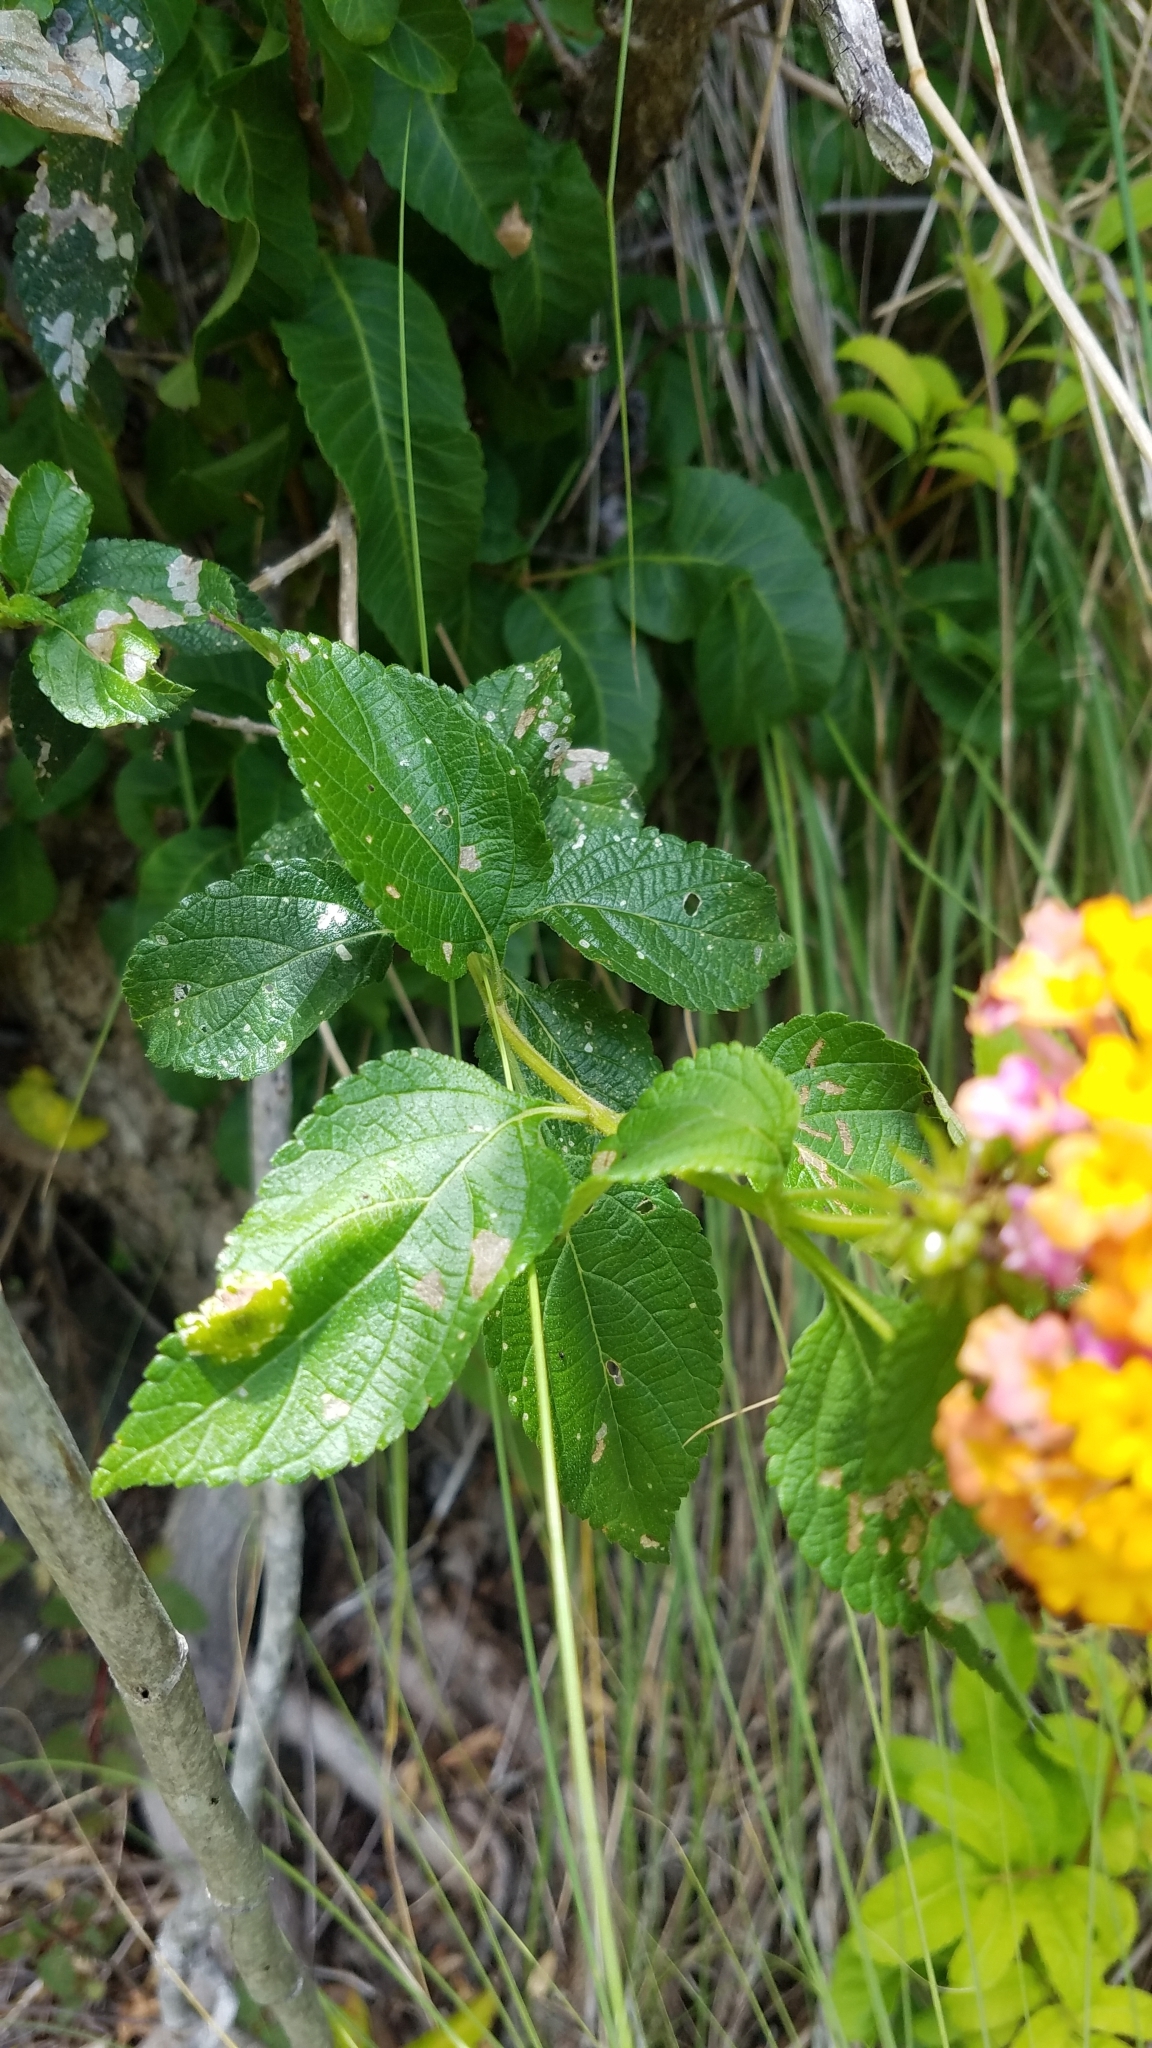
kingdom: Plantae
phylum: Tracheophyta
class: Magnoliopsida
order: Lamiales
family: Verbenaceae
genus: Lantana
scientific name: Lantana camara
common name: Lantana
